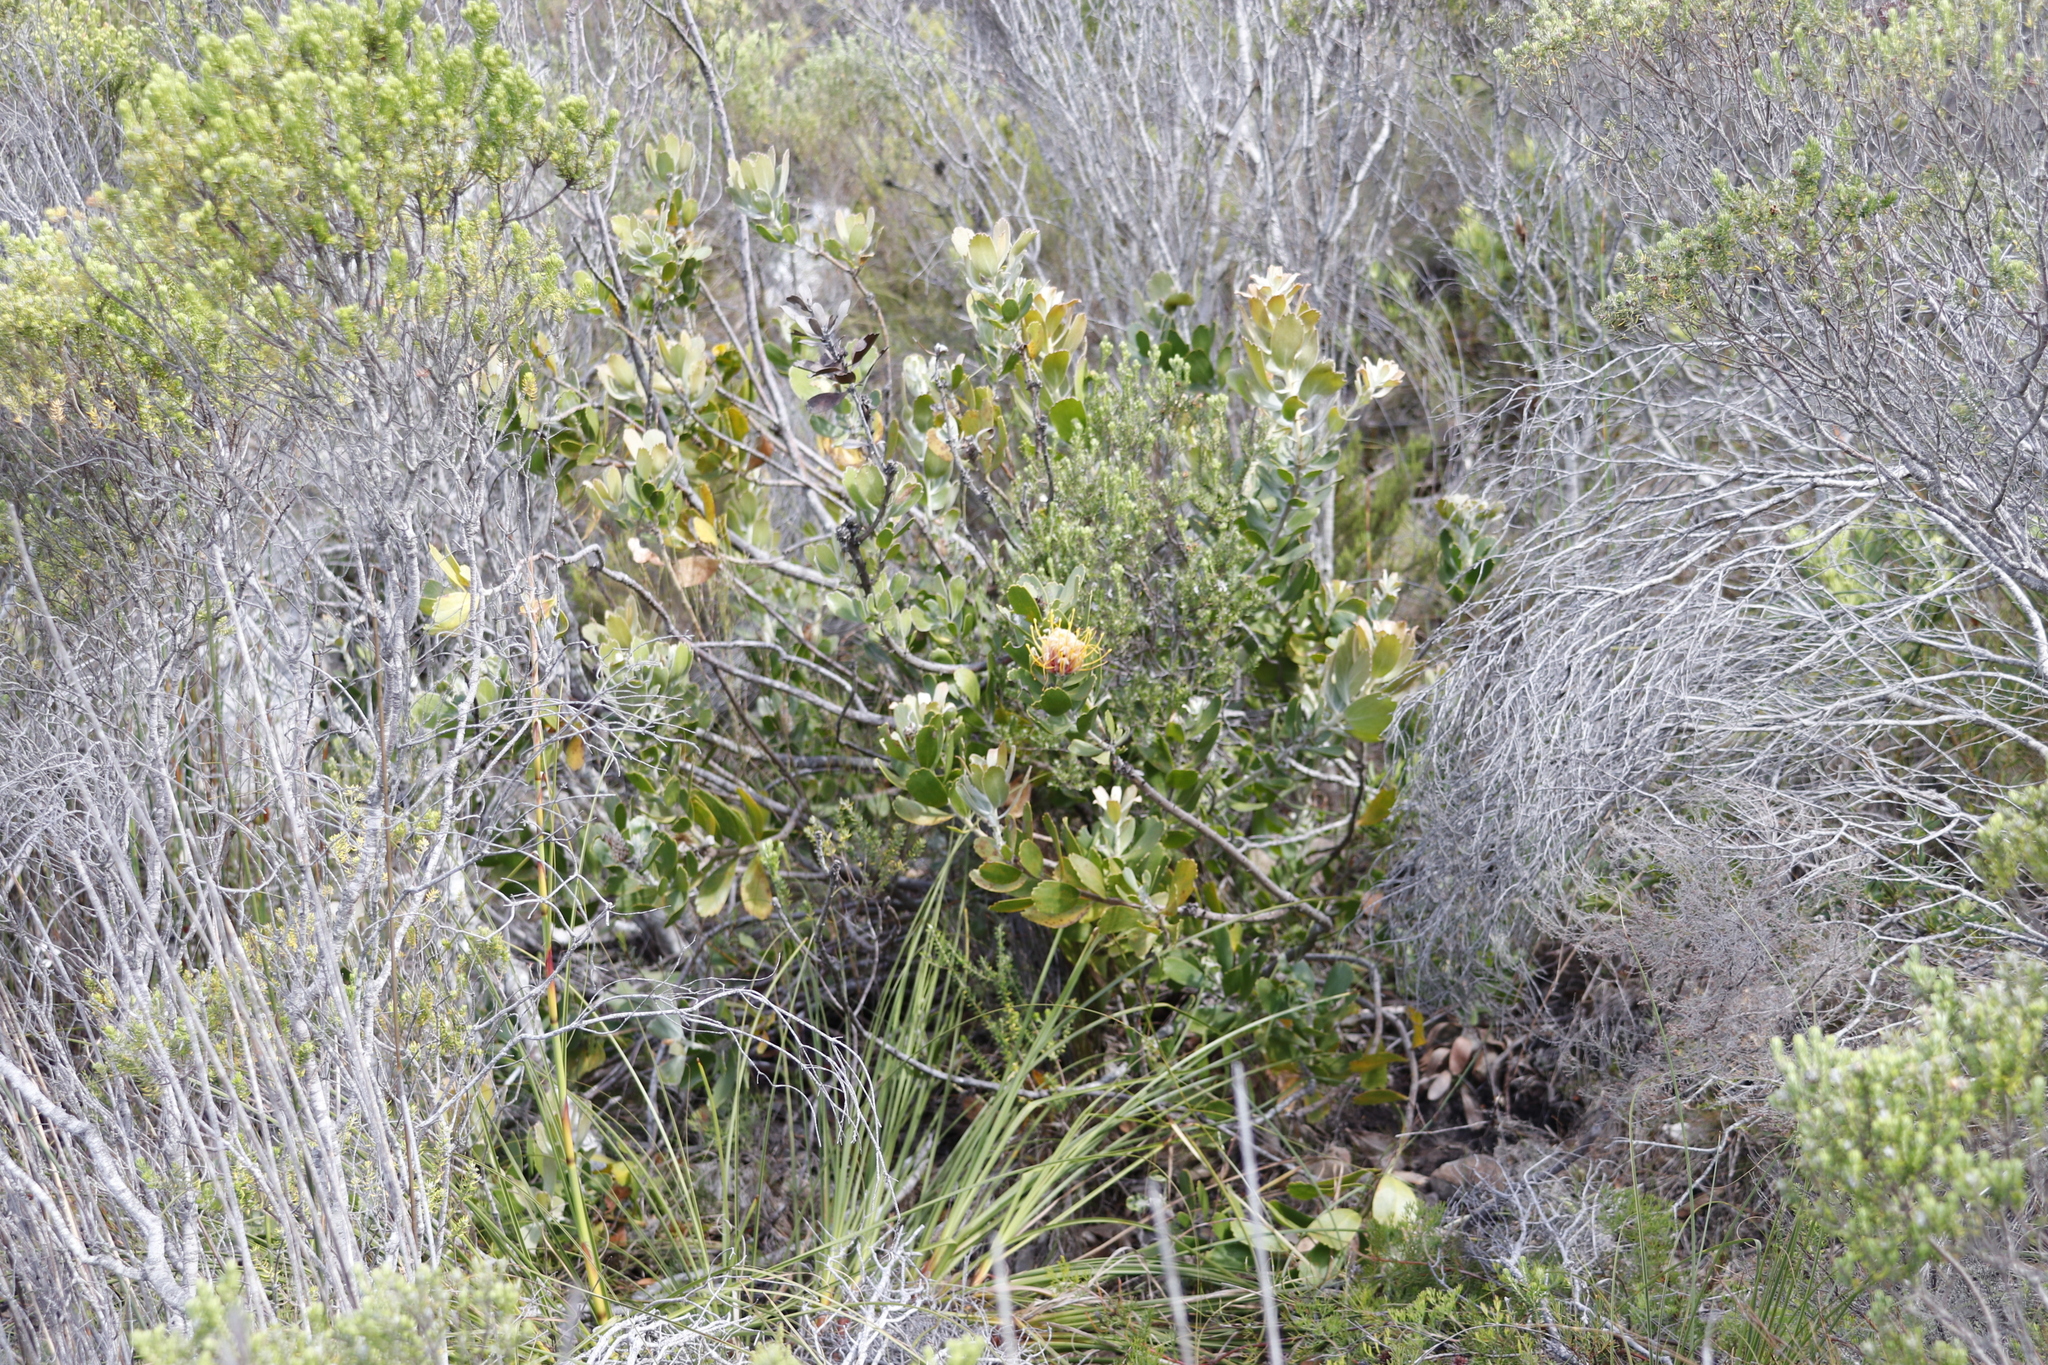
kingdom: Plantae
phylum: Tracheophyta
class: Magnoliopsida
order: Proteales
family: Proteaceae
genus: Leucospermum
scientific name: Leucospermum cuneiforme
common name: Common pincushion
